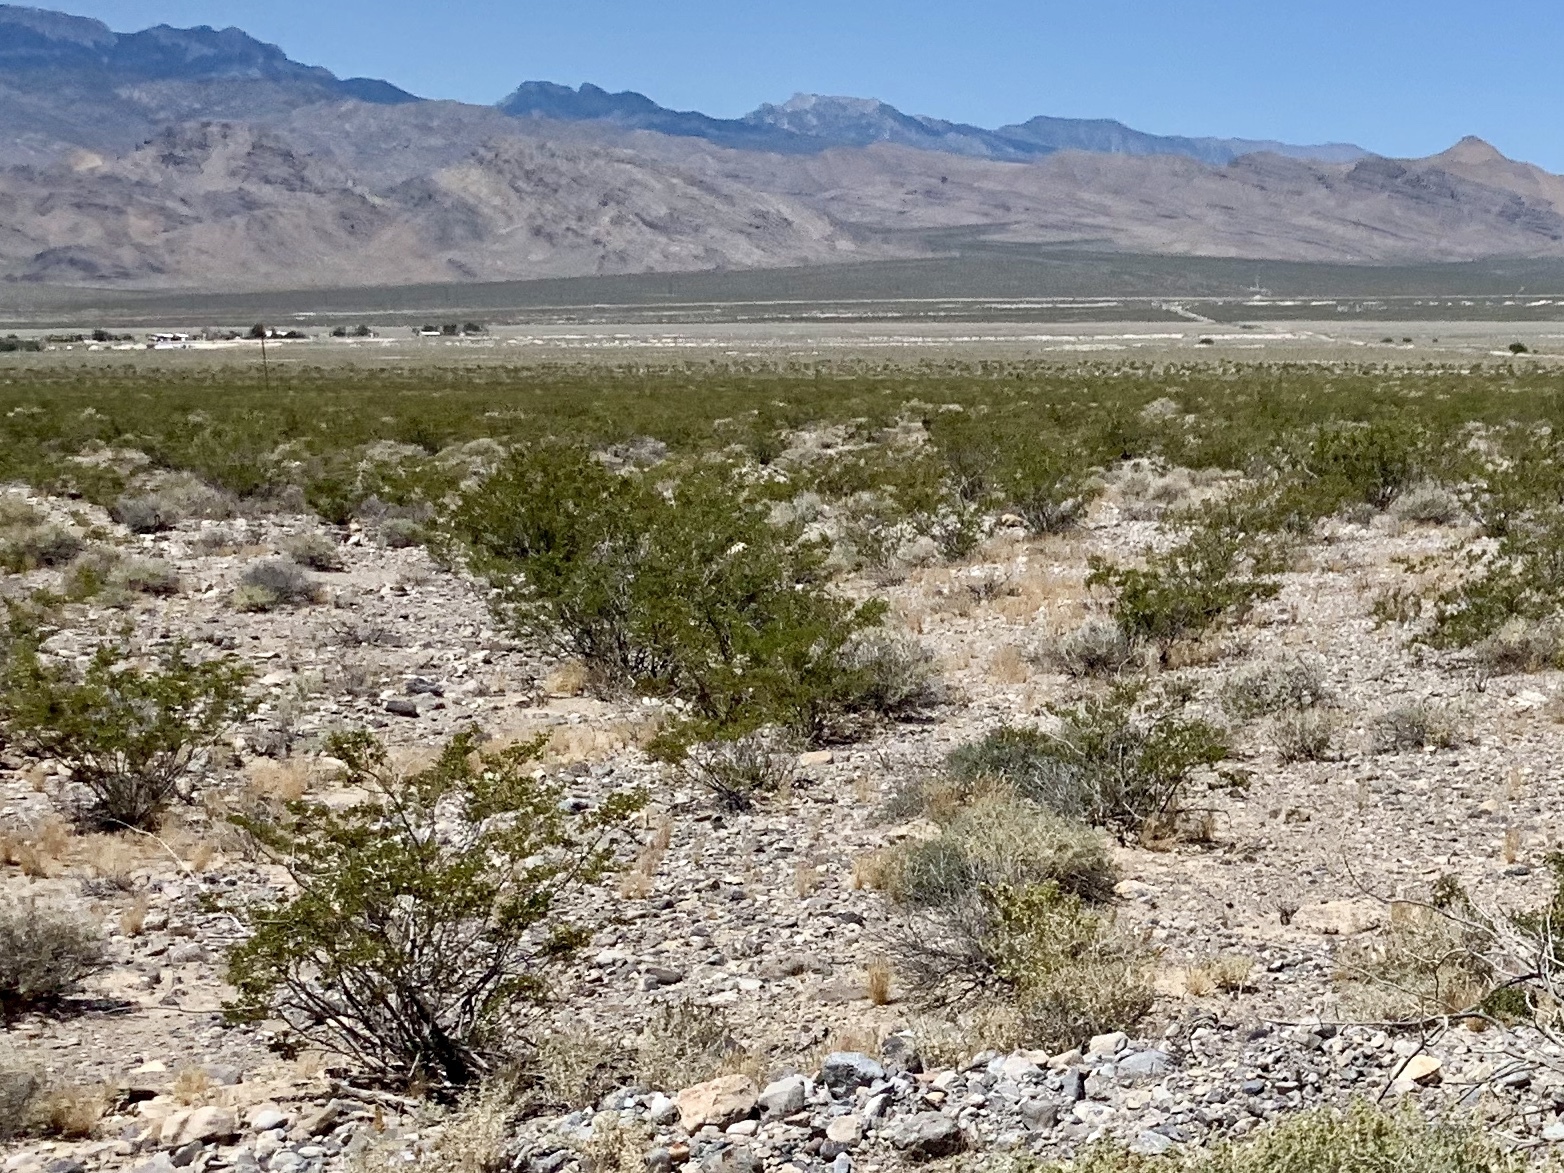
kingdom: Plantae
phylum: Tracheophyta
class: Magnoliopsida
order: Zygophyllales
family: Zygophyllaceae
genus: Larrea
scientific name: Larrea tridentata
